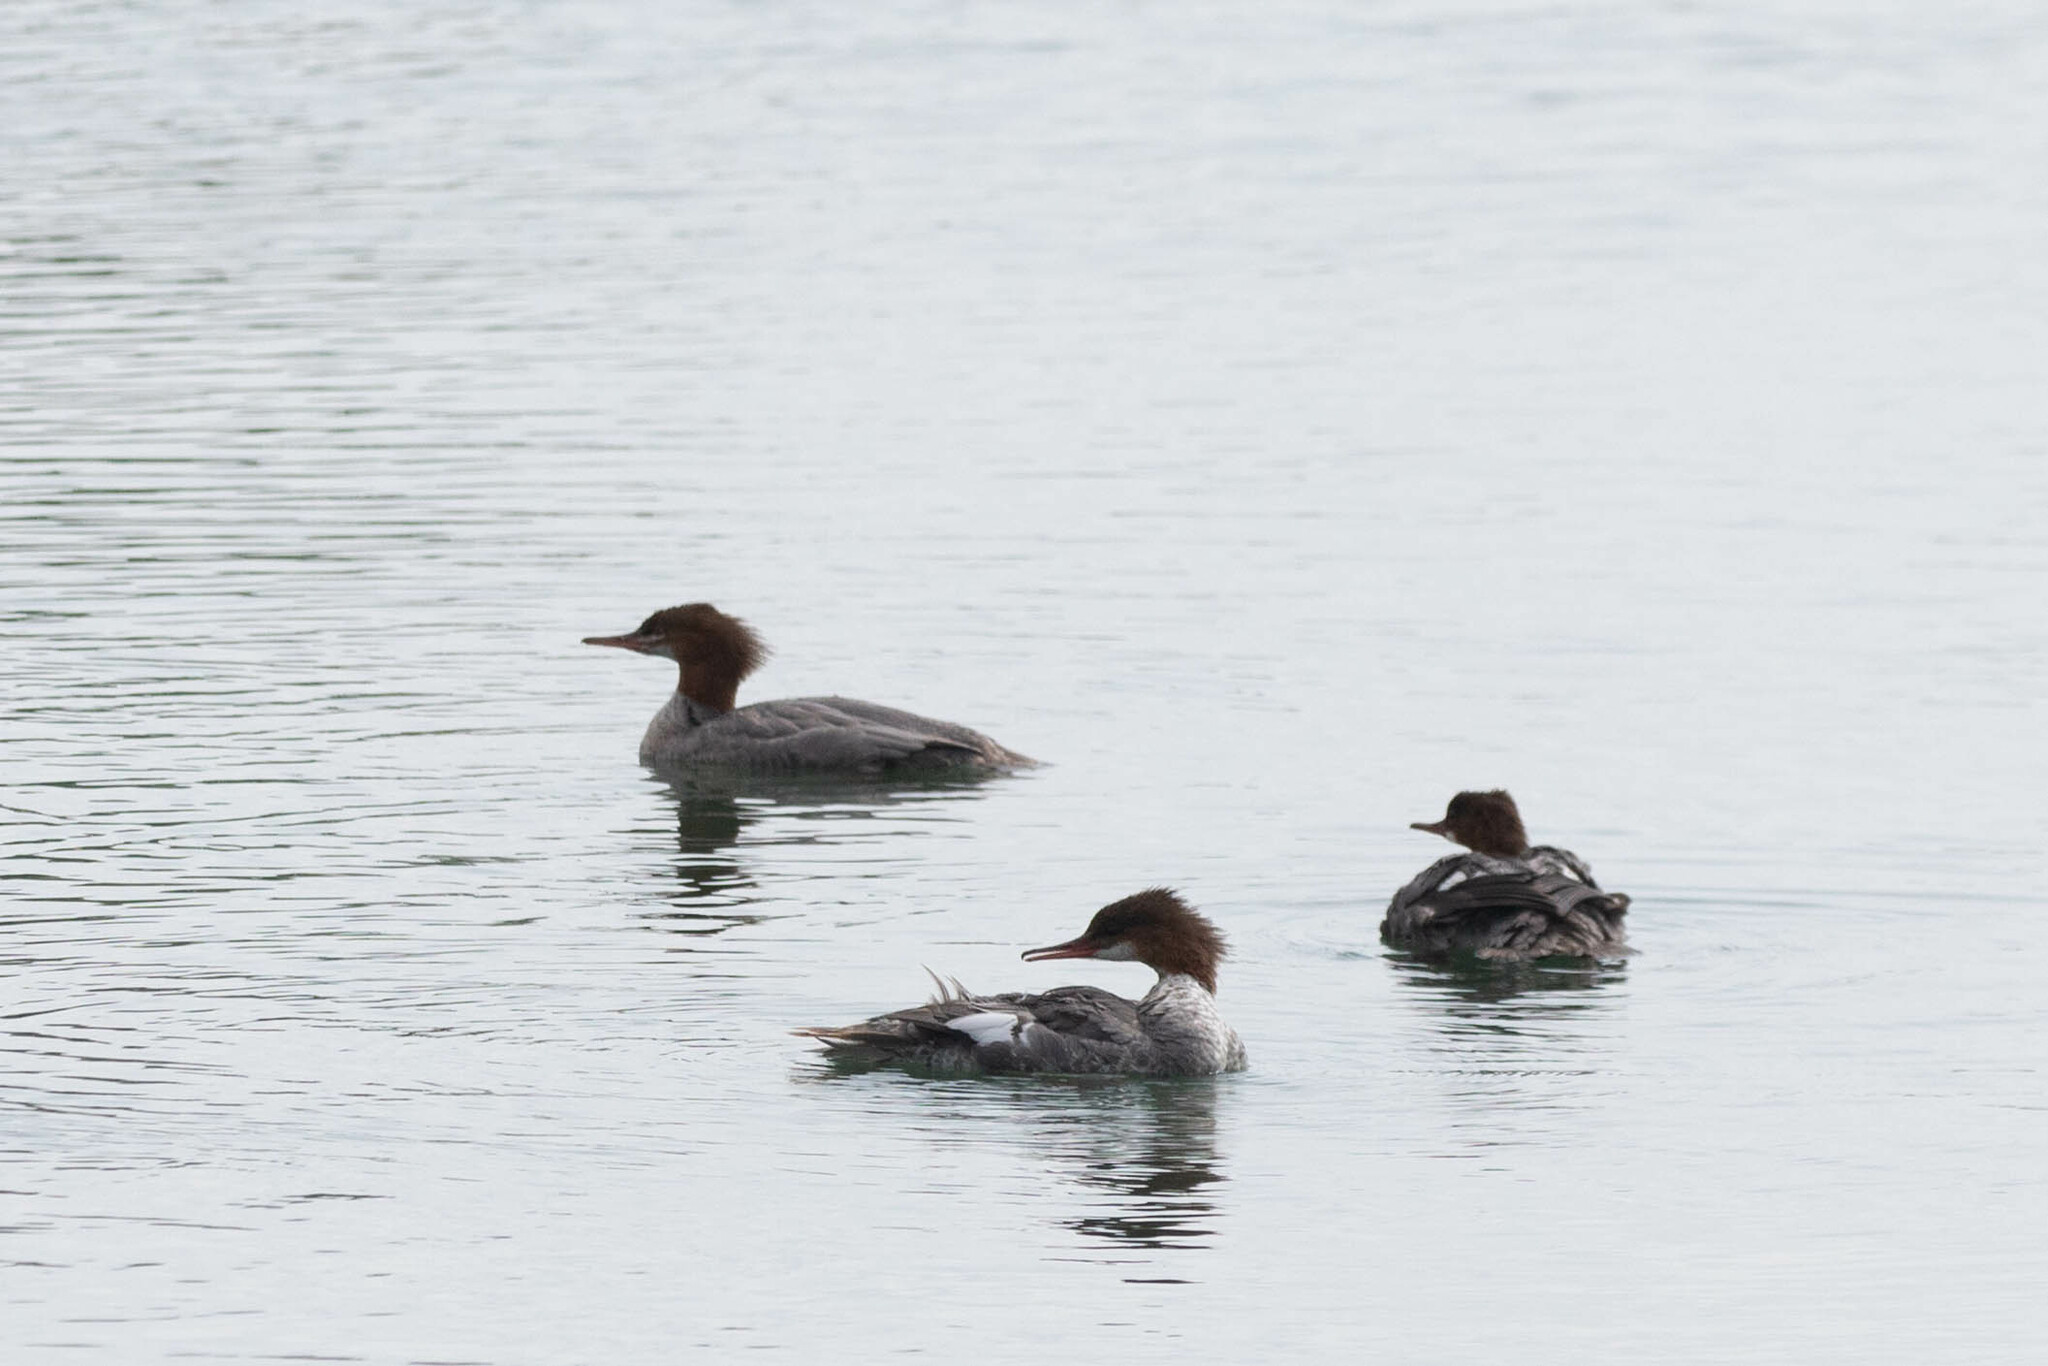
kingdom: Animalia
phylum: Chordata
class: Aves
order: Anseriformes
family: Anatidae
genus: Mergus
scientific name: Mergus merganser
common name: Common merganser
